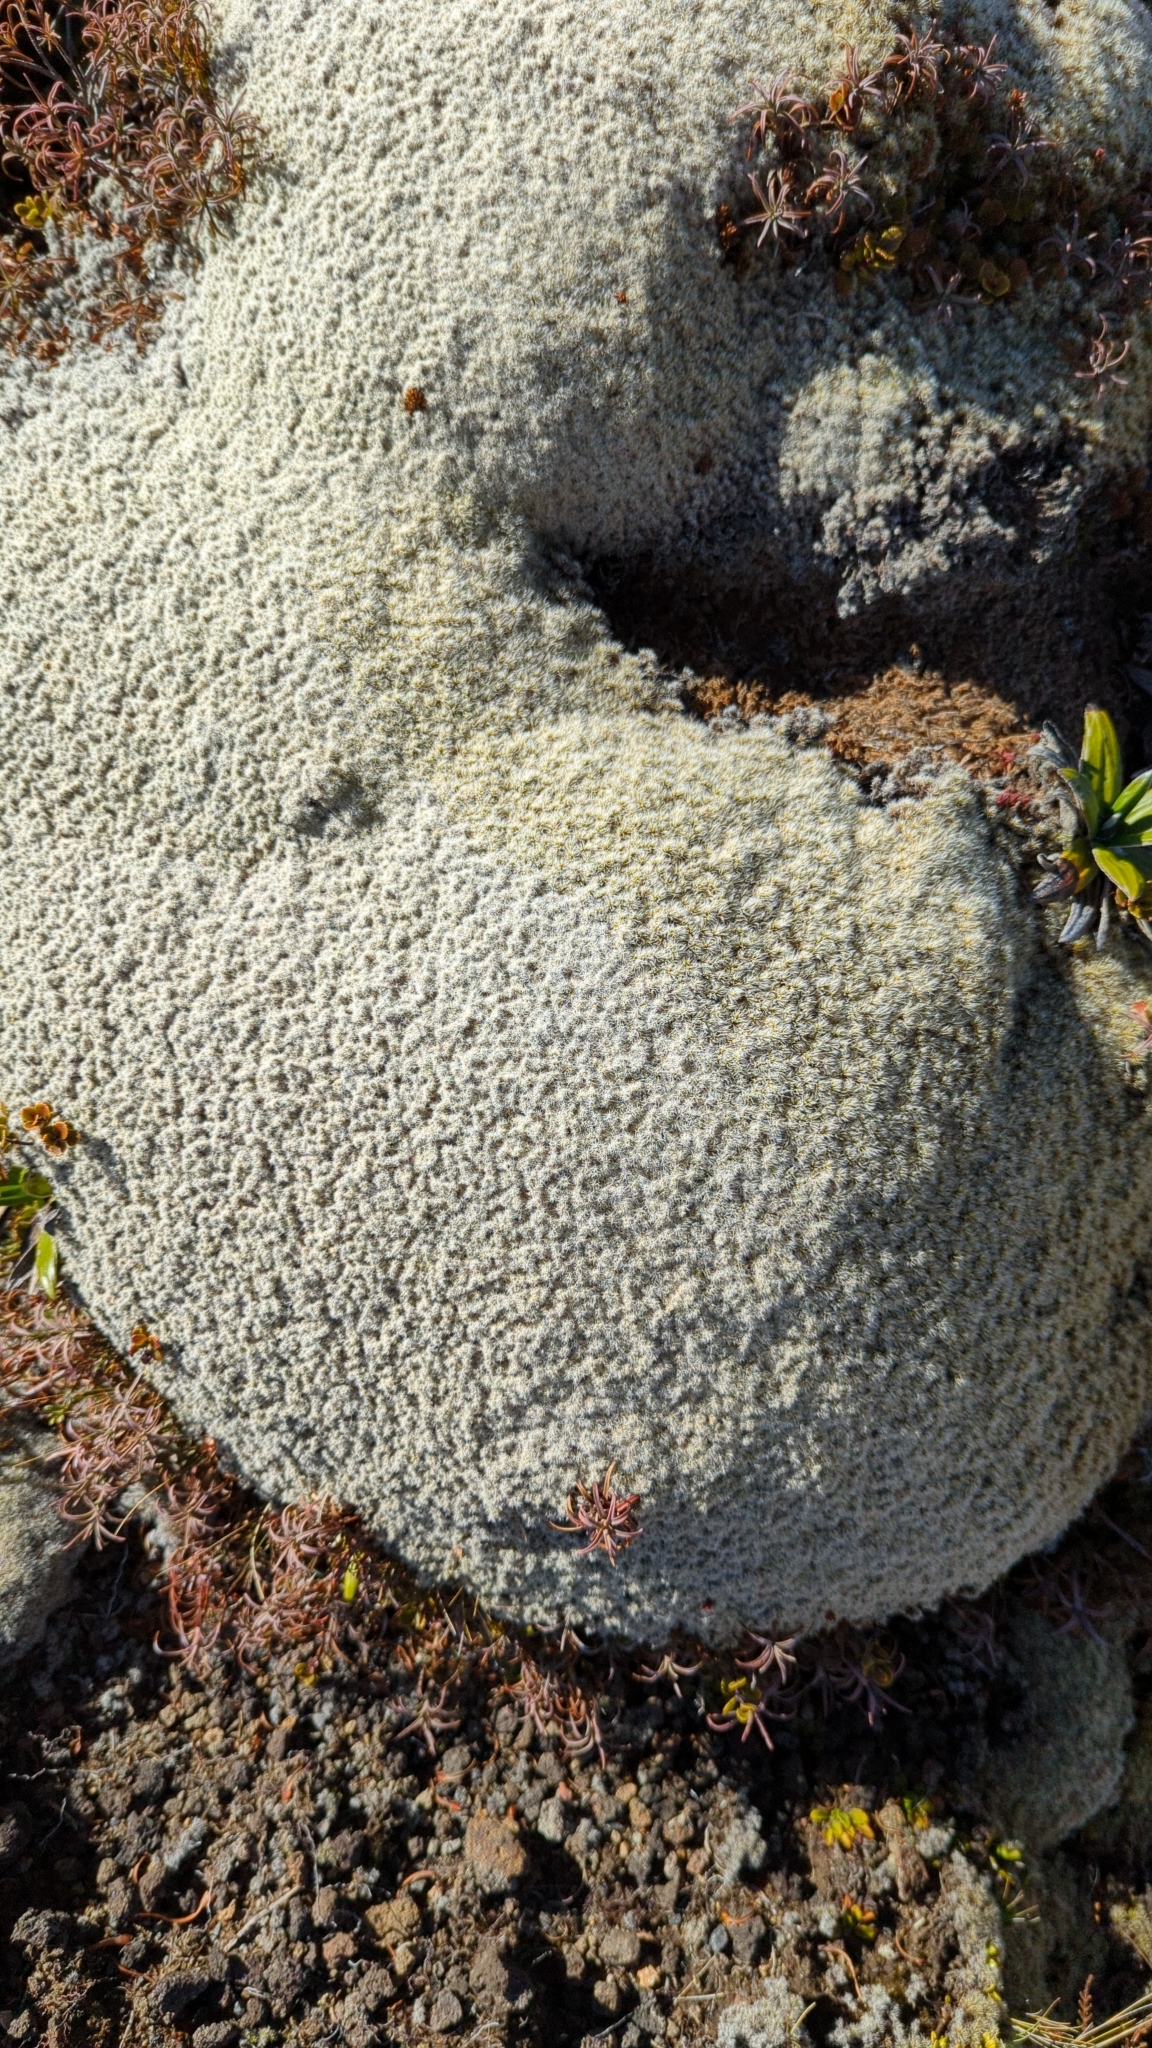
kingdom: Plantae
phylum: Bryophyta
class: Bryopsida
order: Grimmiales
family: Grimmiaceae
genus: Racomitrium
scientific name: Racomitrium lanuginosum
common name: Hoary rock moss
